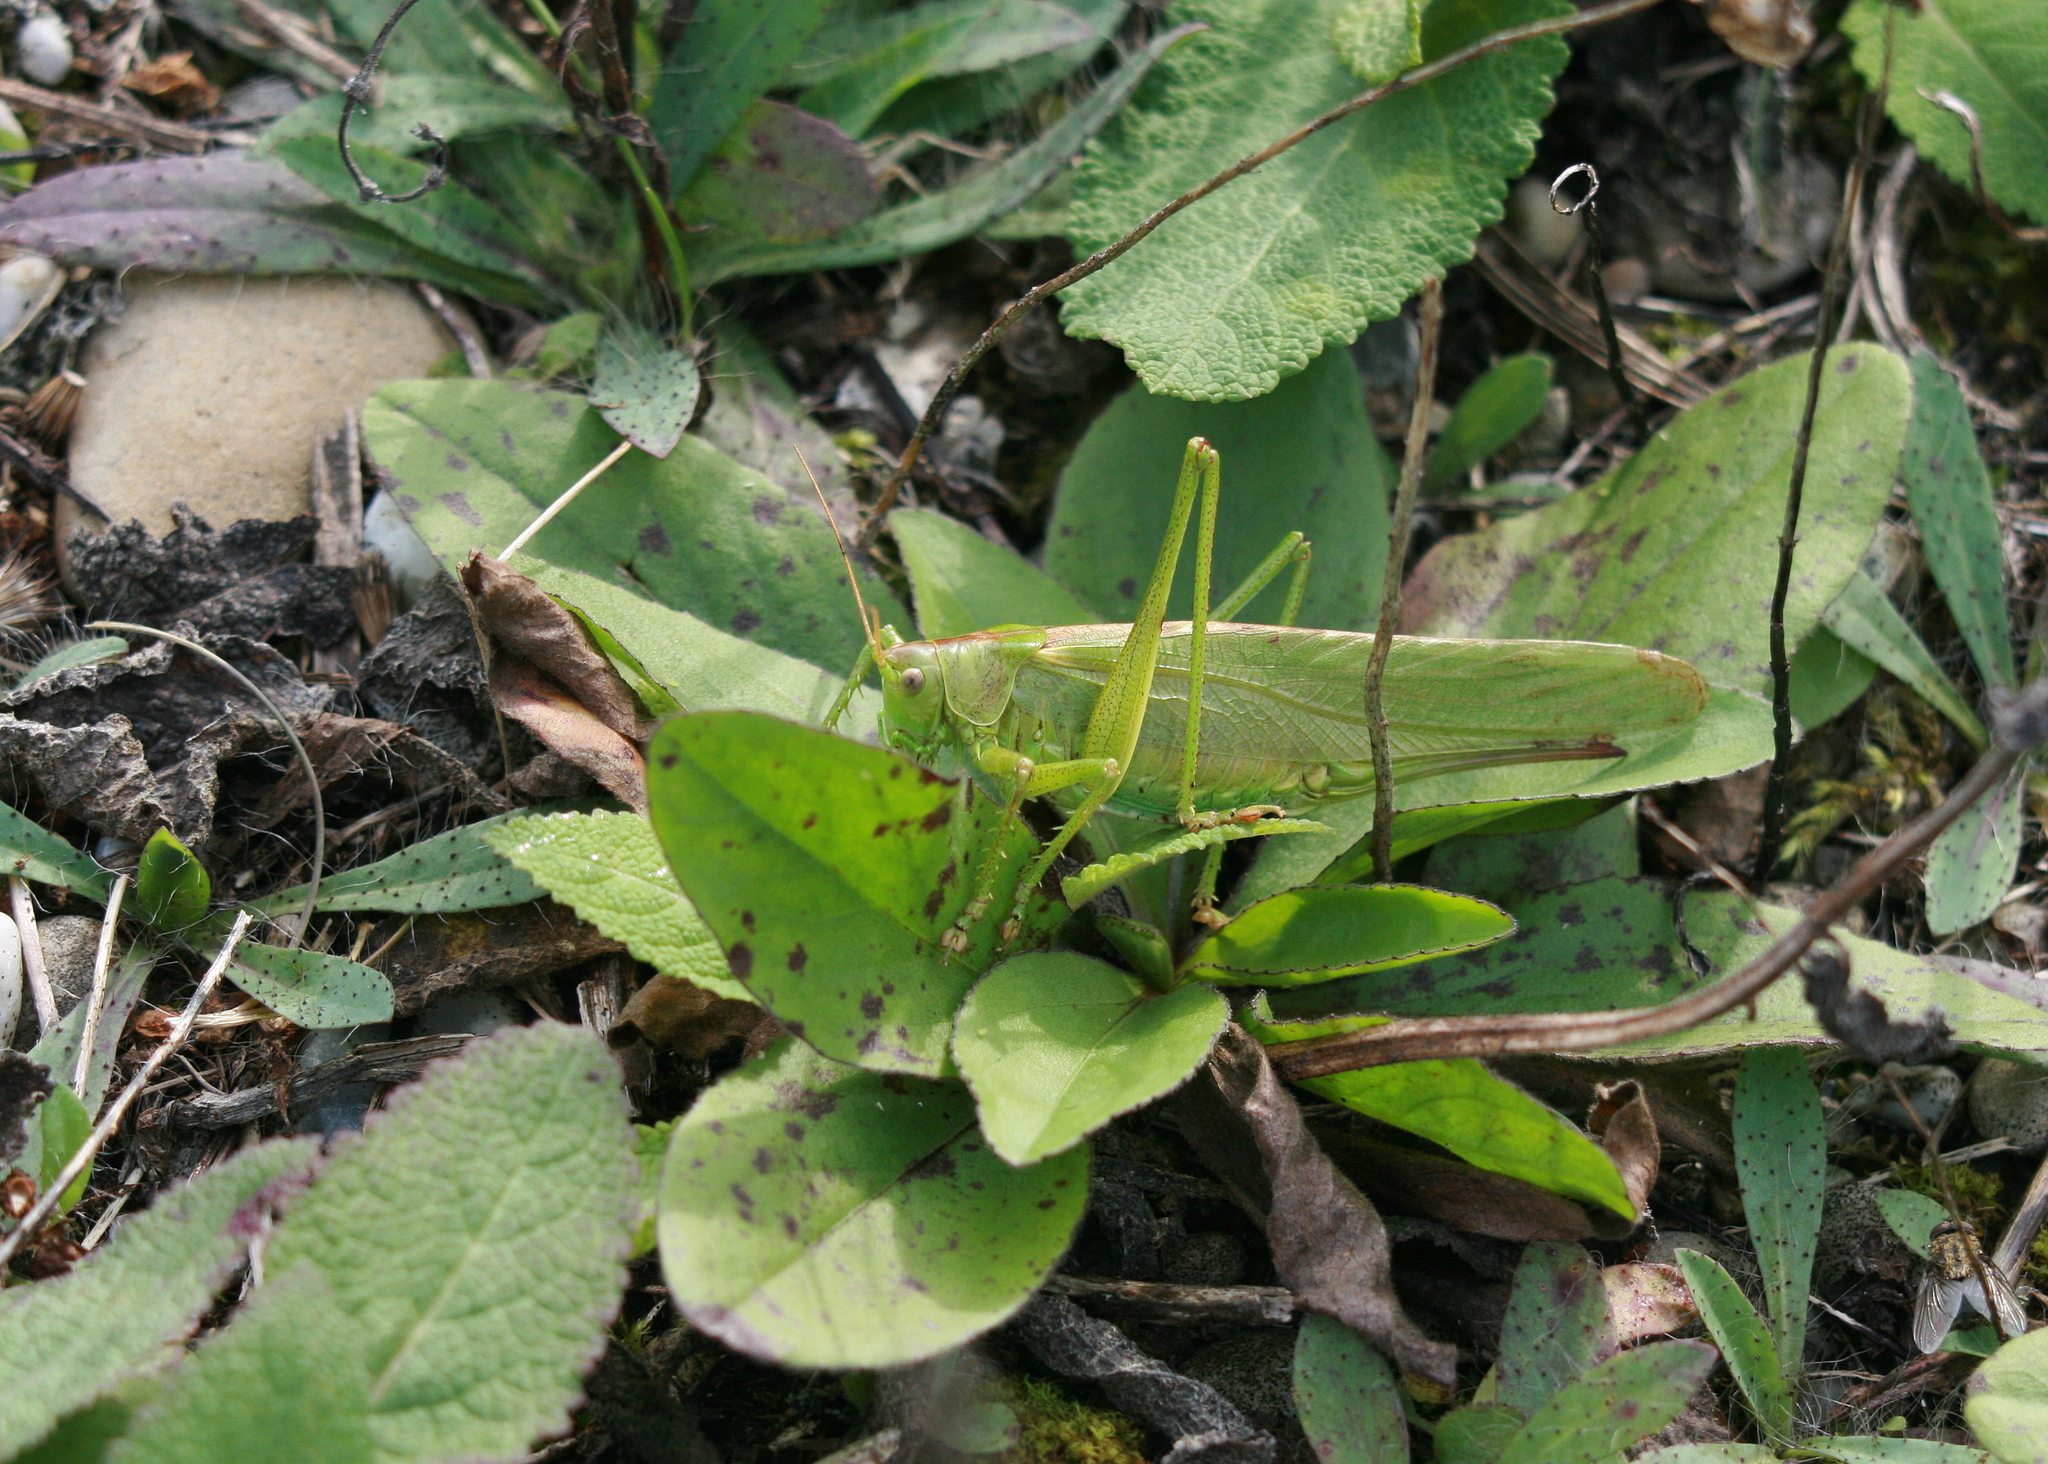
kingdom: Animalia
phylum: Arthropoda
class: Insecta
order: Orthoptera
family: Tettigoniidae
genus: Tettigonia
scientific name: Tettigonia viridissima
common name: Great green bush-cricket
